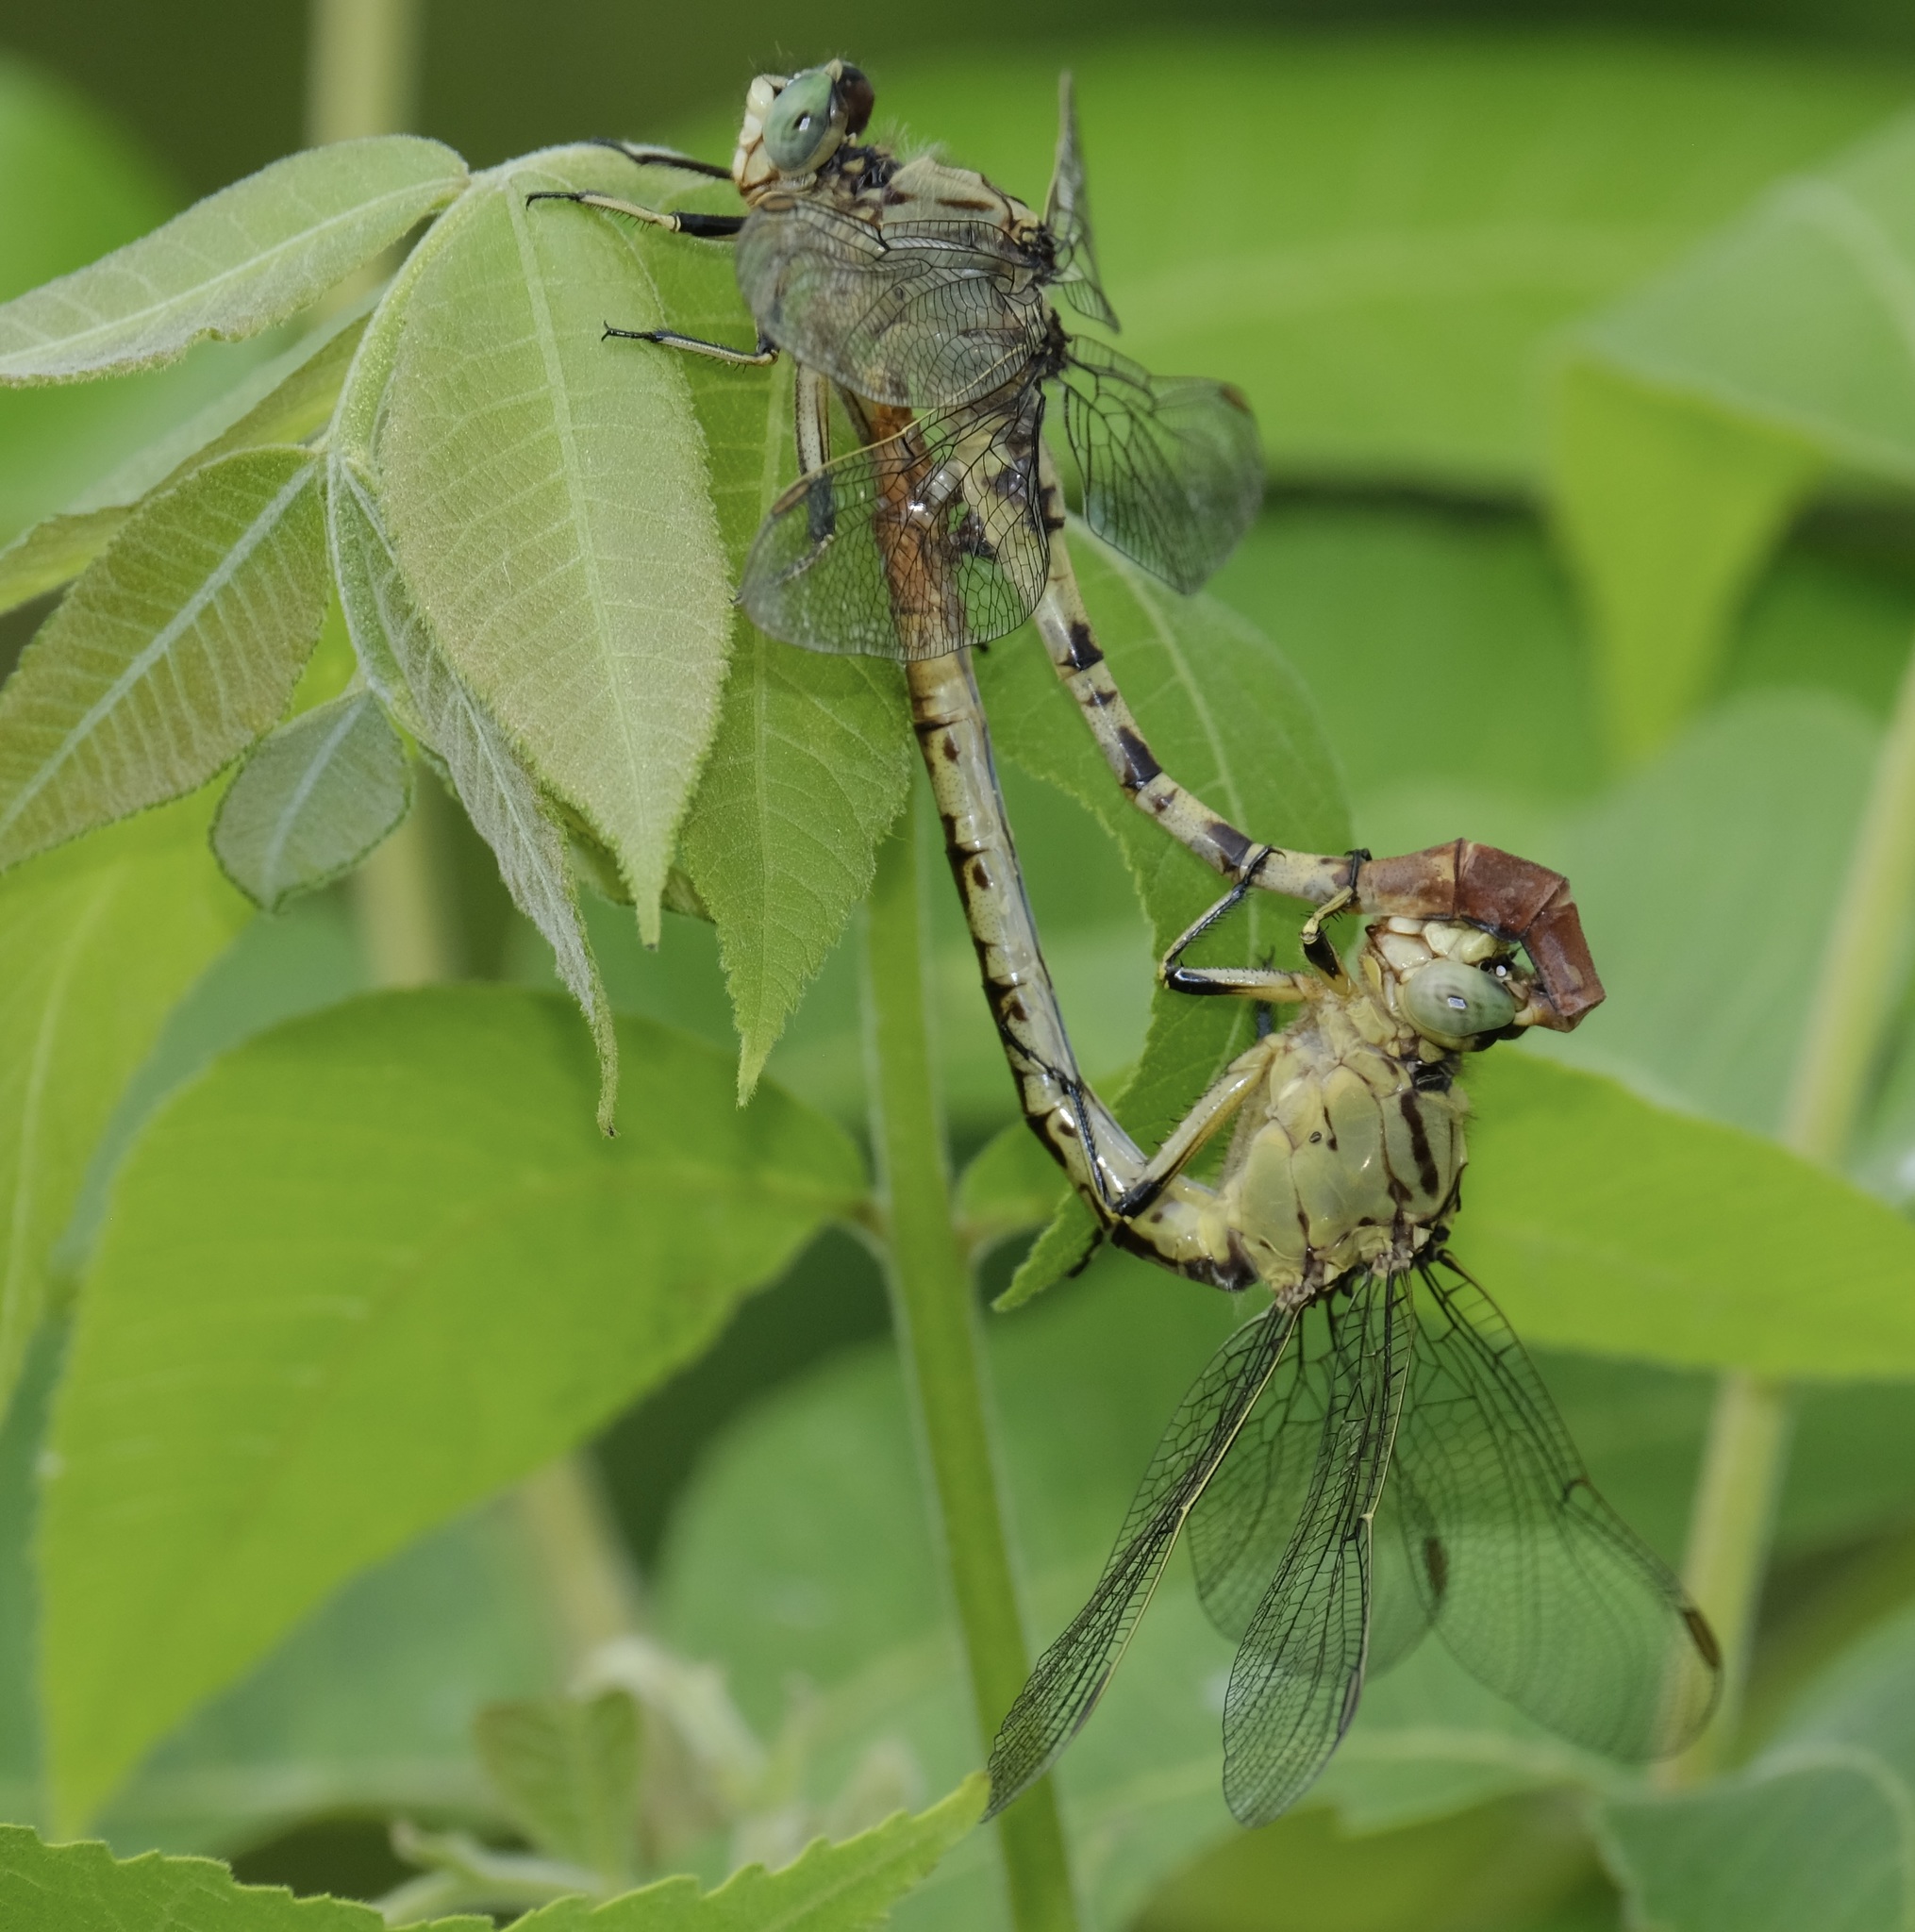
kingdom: Animalia
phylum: Arthropoda
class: Insecta
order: Odonata
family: Gomphidae
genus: Arigomphus
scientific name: Arigomphus submedianus
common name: Jade clubtail
